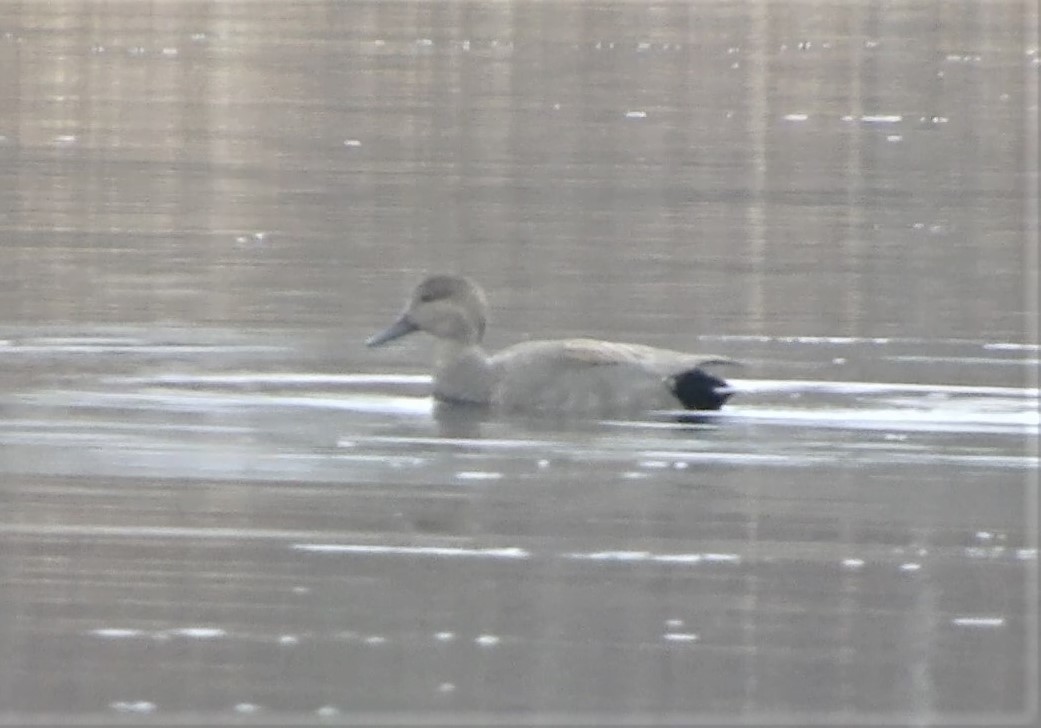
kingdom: Animalia
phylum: Chordata
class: Aves
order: Anseriformes
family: Anatidae
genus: Mareca
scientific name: Mareca strepera
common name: Gadwall
